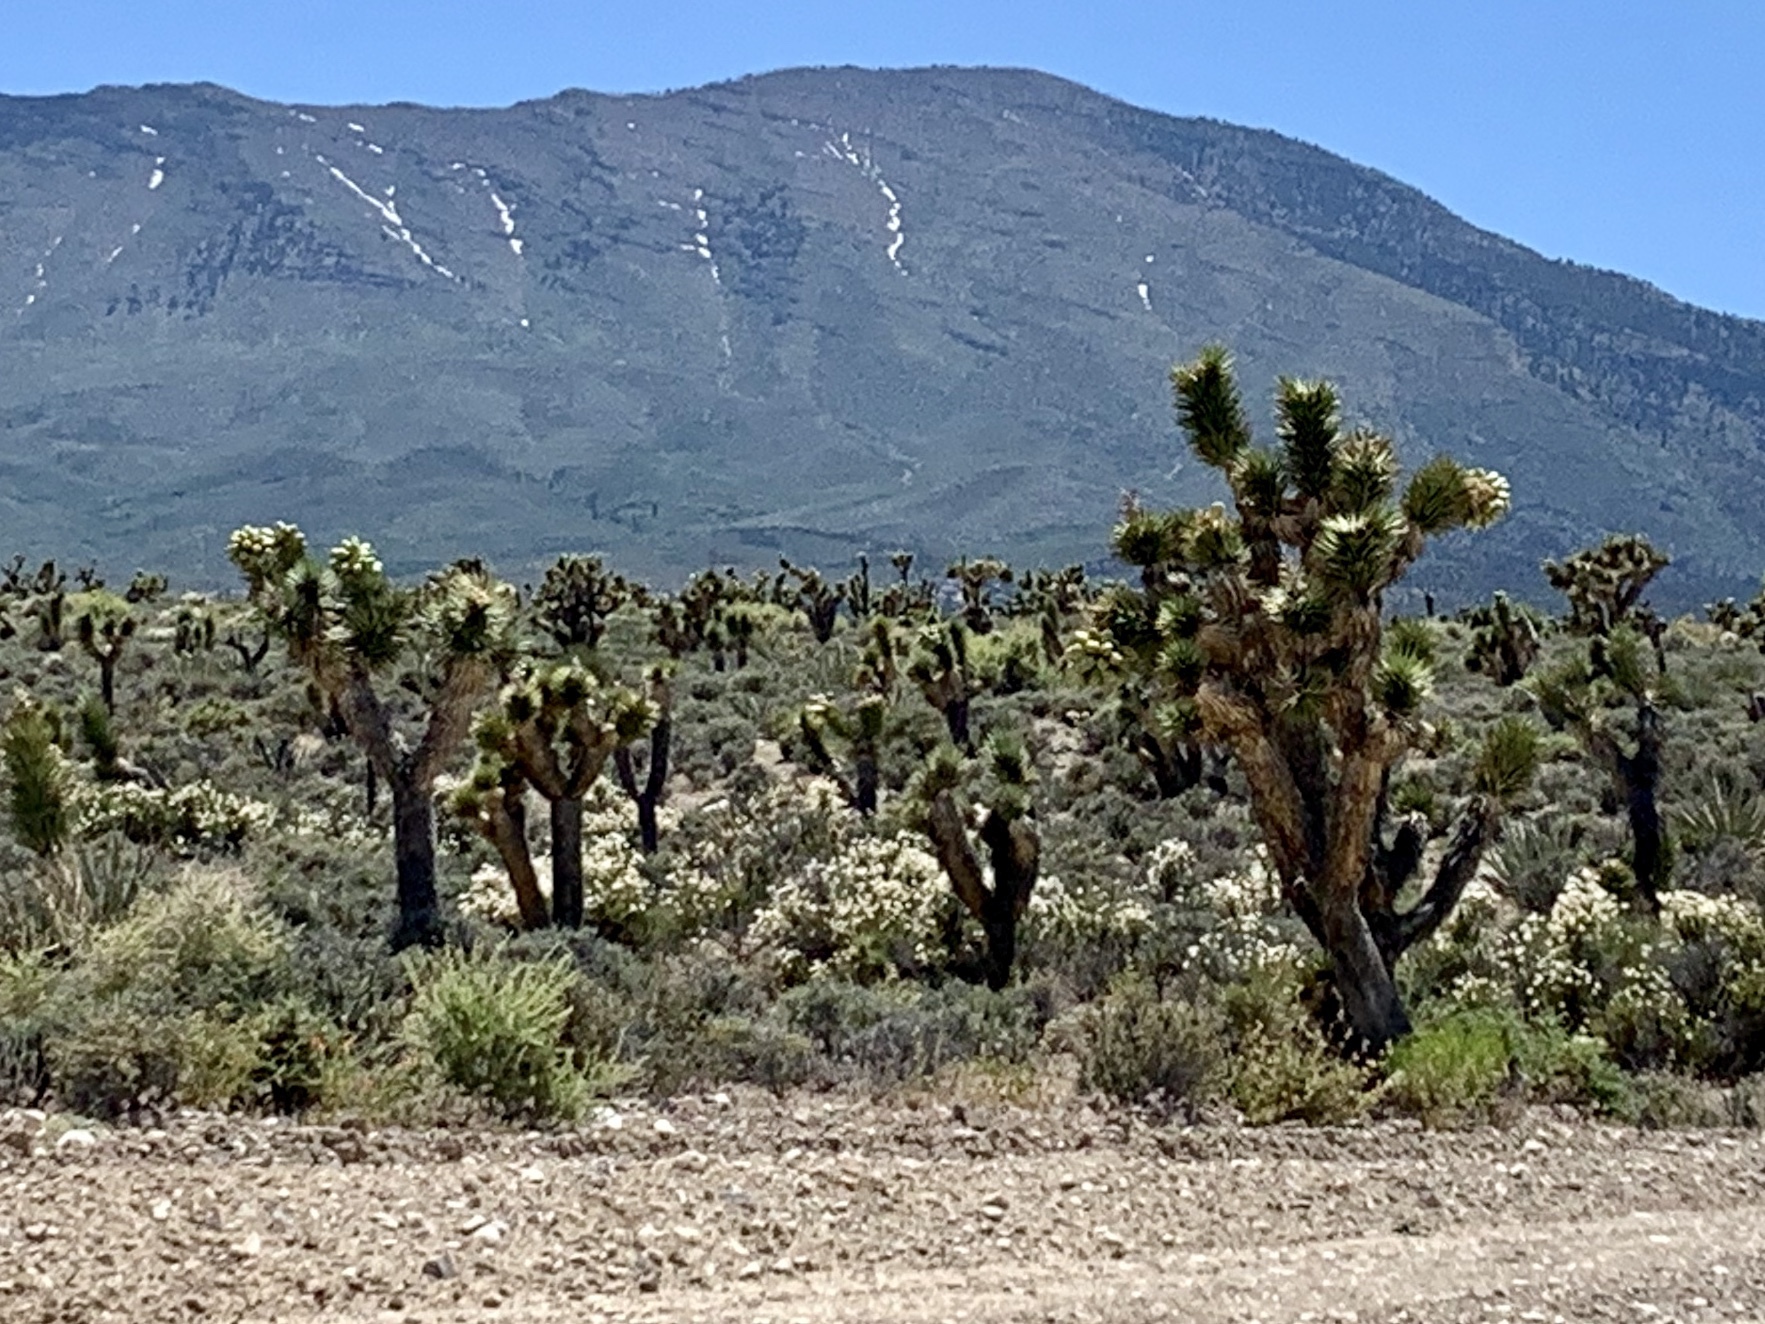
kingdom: Plantae
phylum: Tracheophyta
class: Liliopsida
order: Asparagales
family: Asparagaceae
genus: Yucca
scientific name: Yucca brevifolia
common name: Joshua tree
